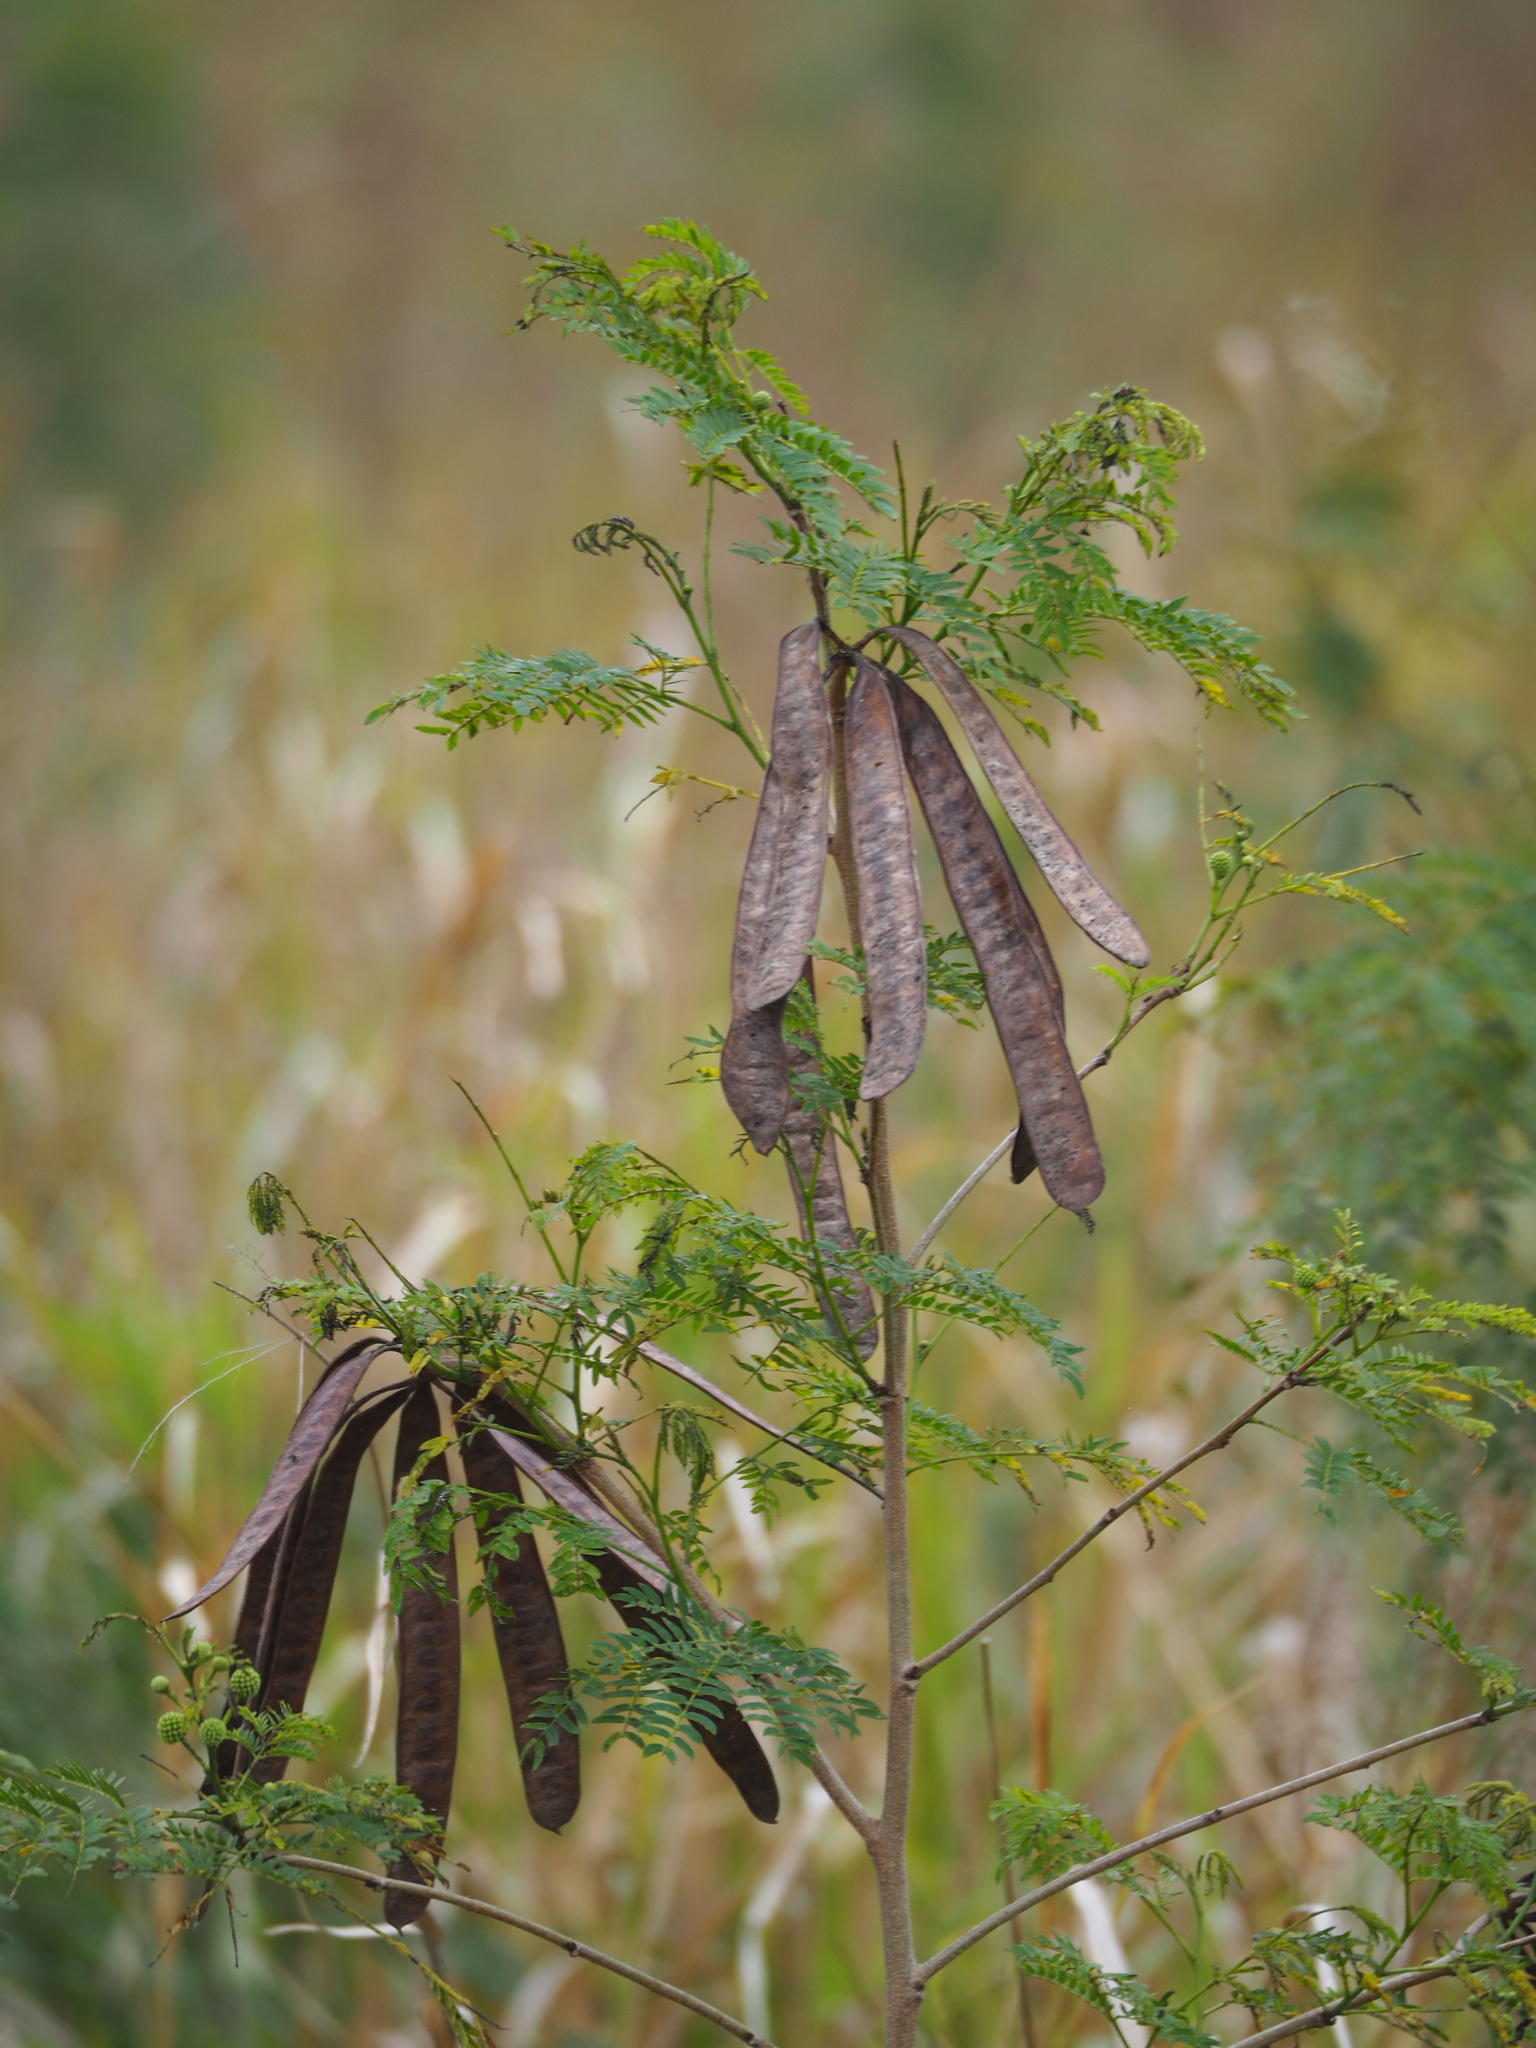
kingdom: Plantae
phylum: Tracheophyta
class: Magnoliopsida
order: Fabales
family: Fabaceae
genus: Leucaena
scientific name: Leucaena leucocephala
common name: White leadtree
